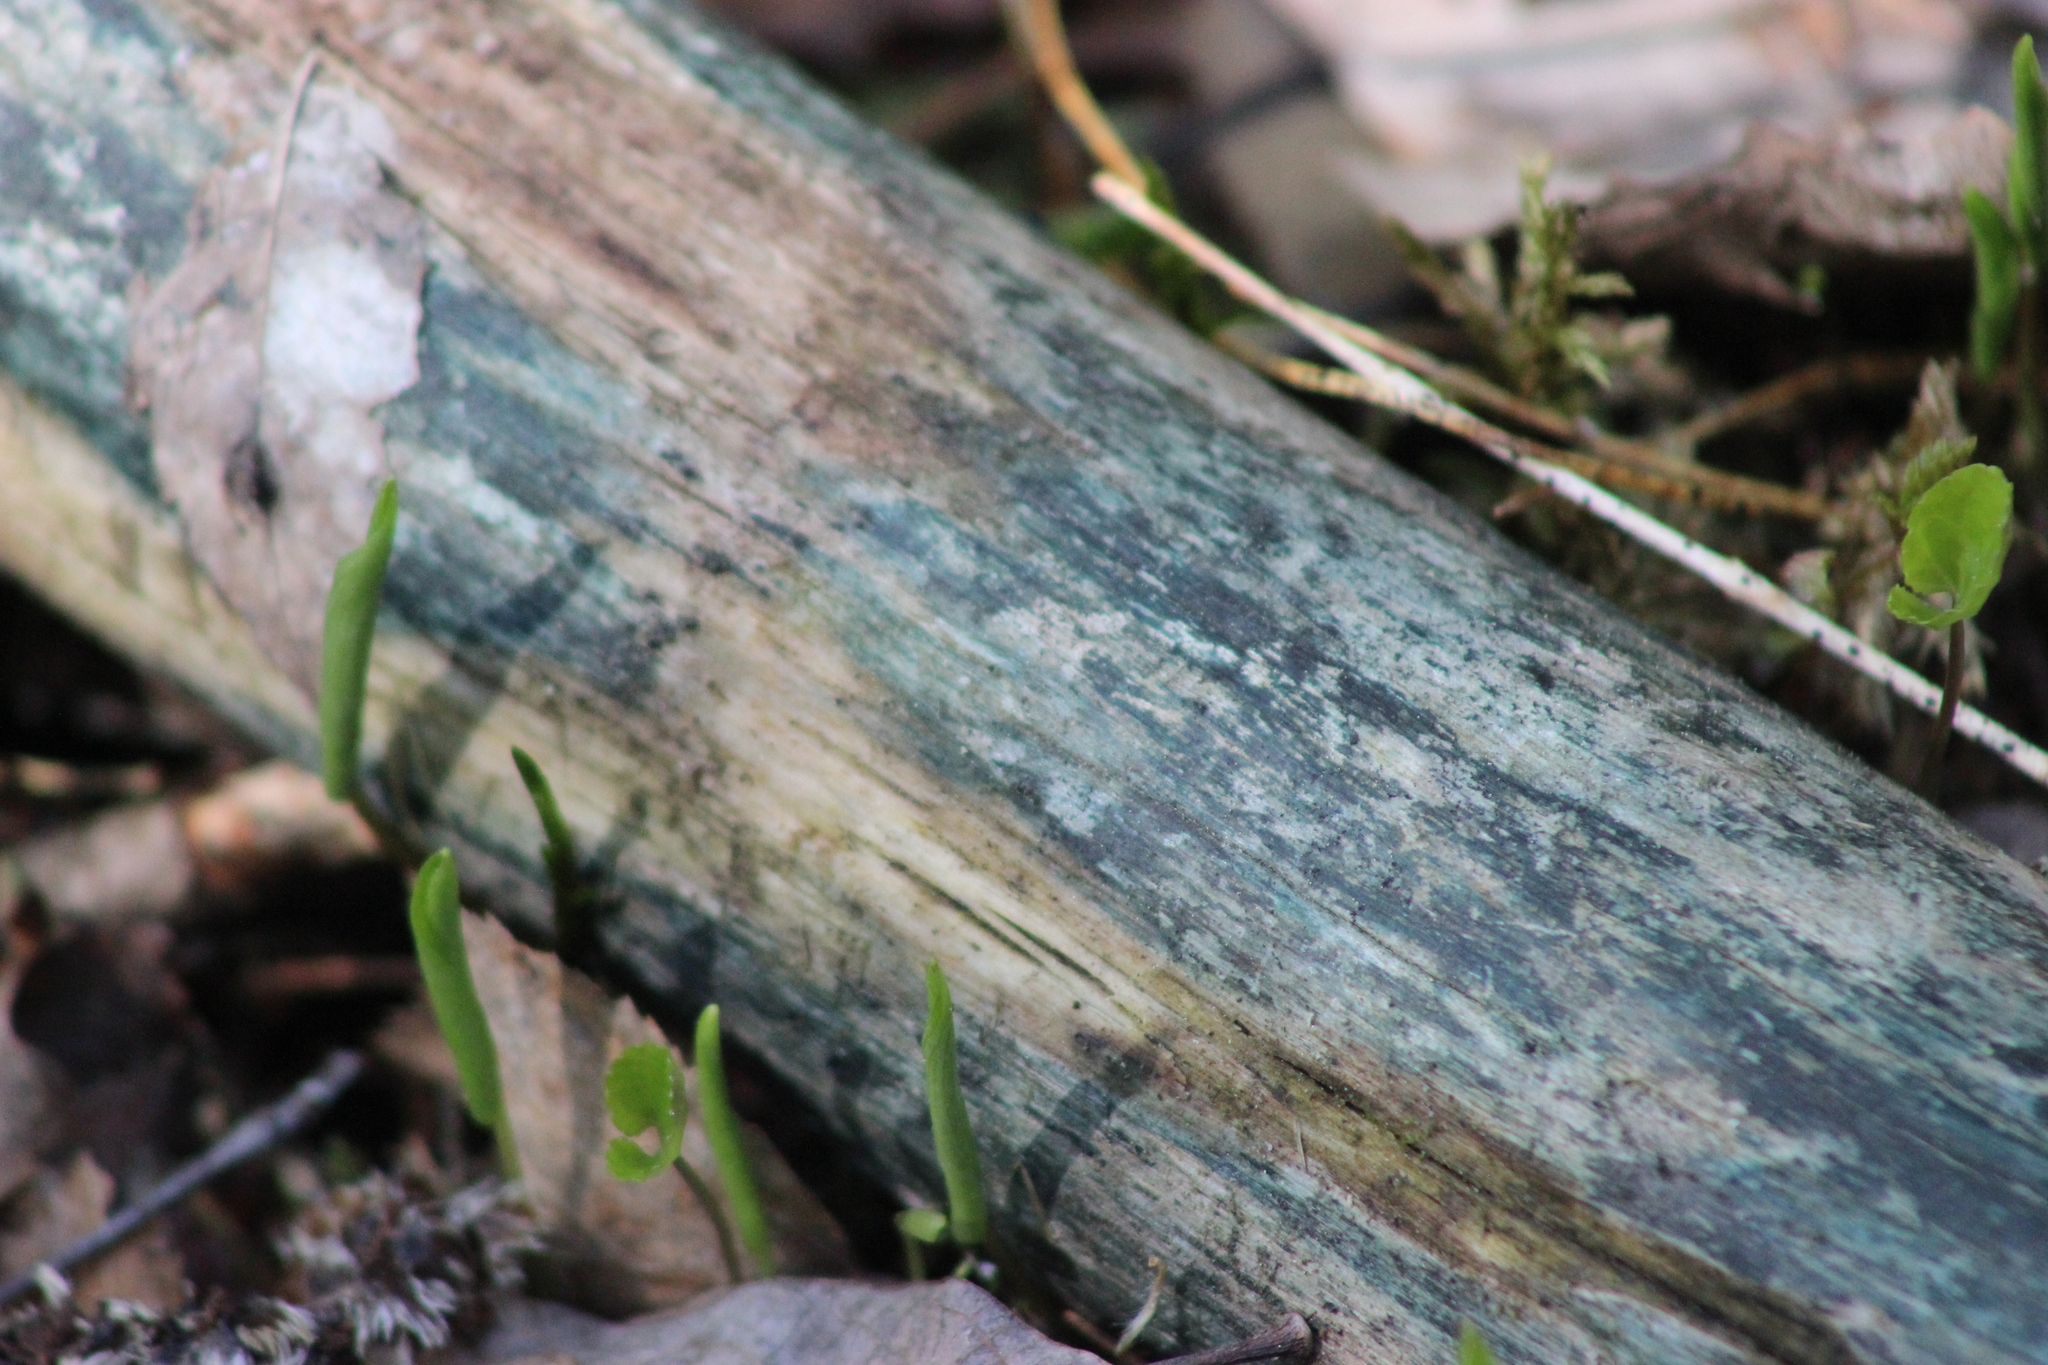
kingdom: Fungi
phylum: Ascomycota
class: Leotiomycetes
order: Helotiales
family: Chlorociboriaceae
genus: Chlorociboria
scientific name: Chlorociboria
